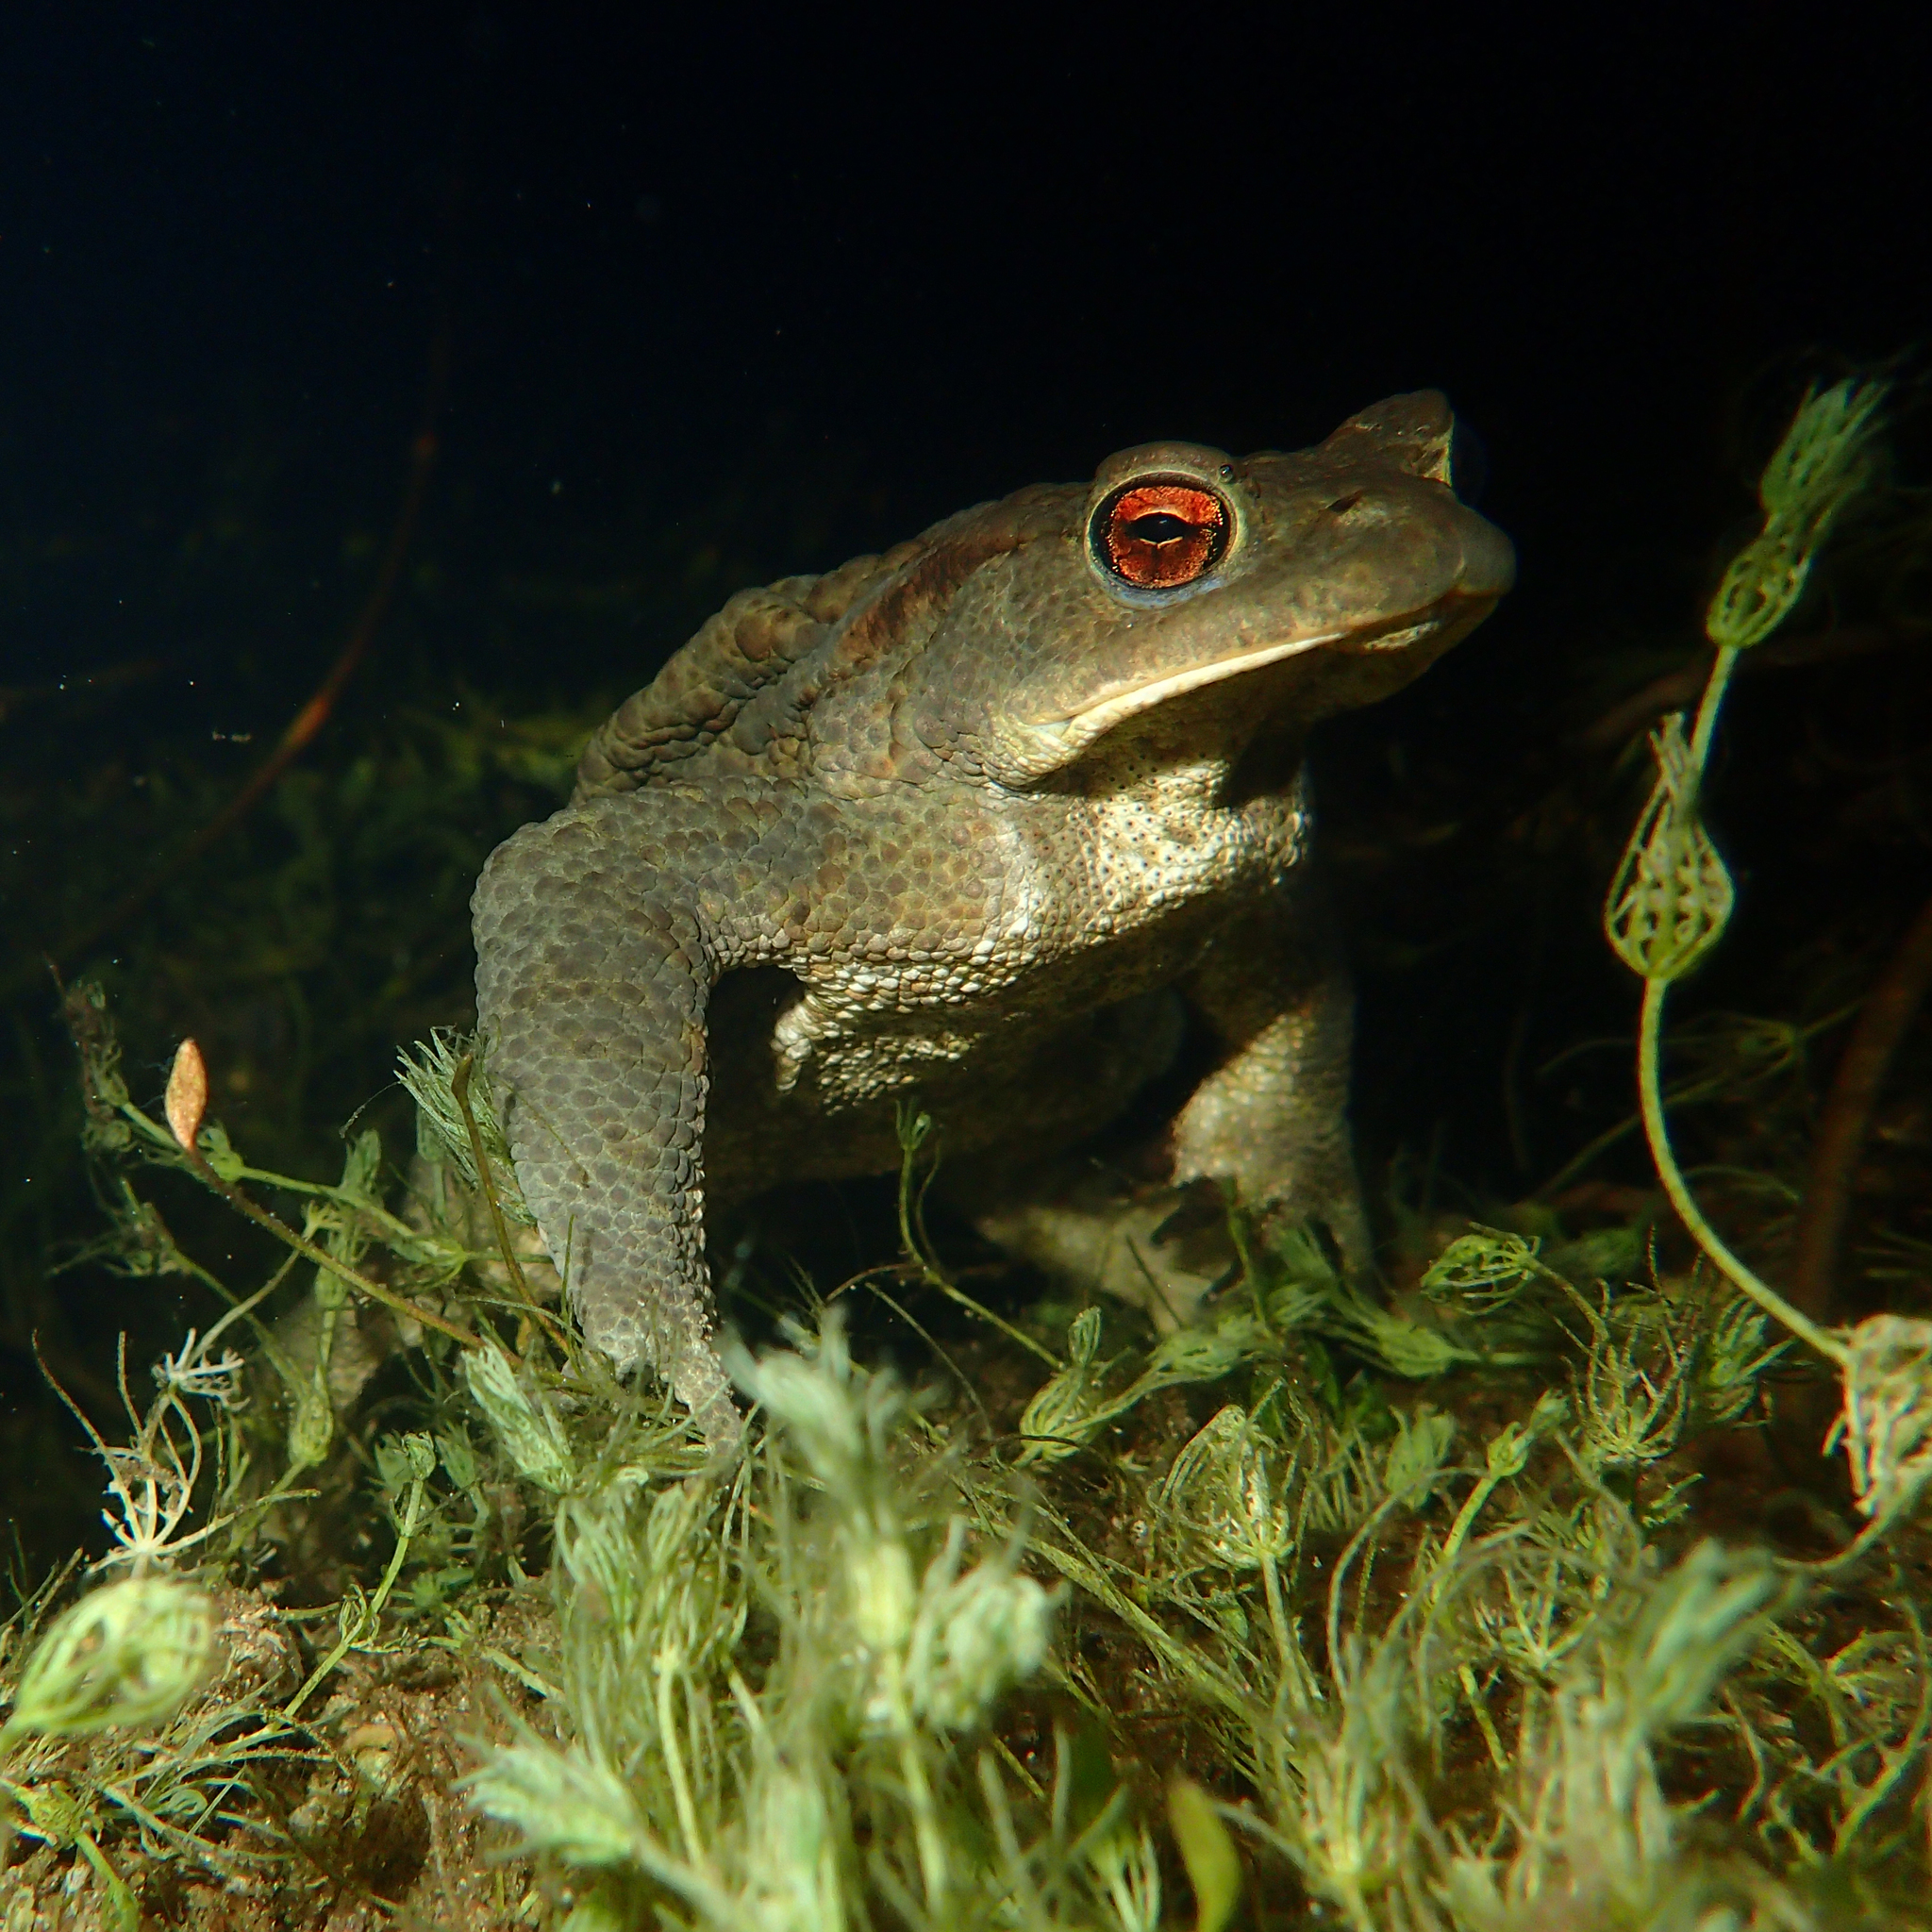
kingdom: Animalia
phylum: Chordata
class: Amphibia
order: Anura
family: Bufonidae
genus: Bufo
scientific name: Bufo bufo
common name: Common toad
